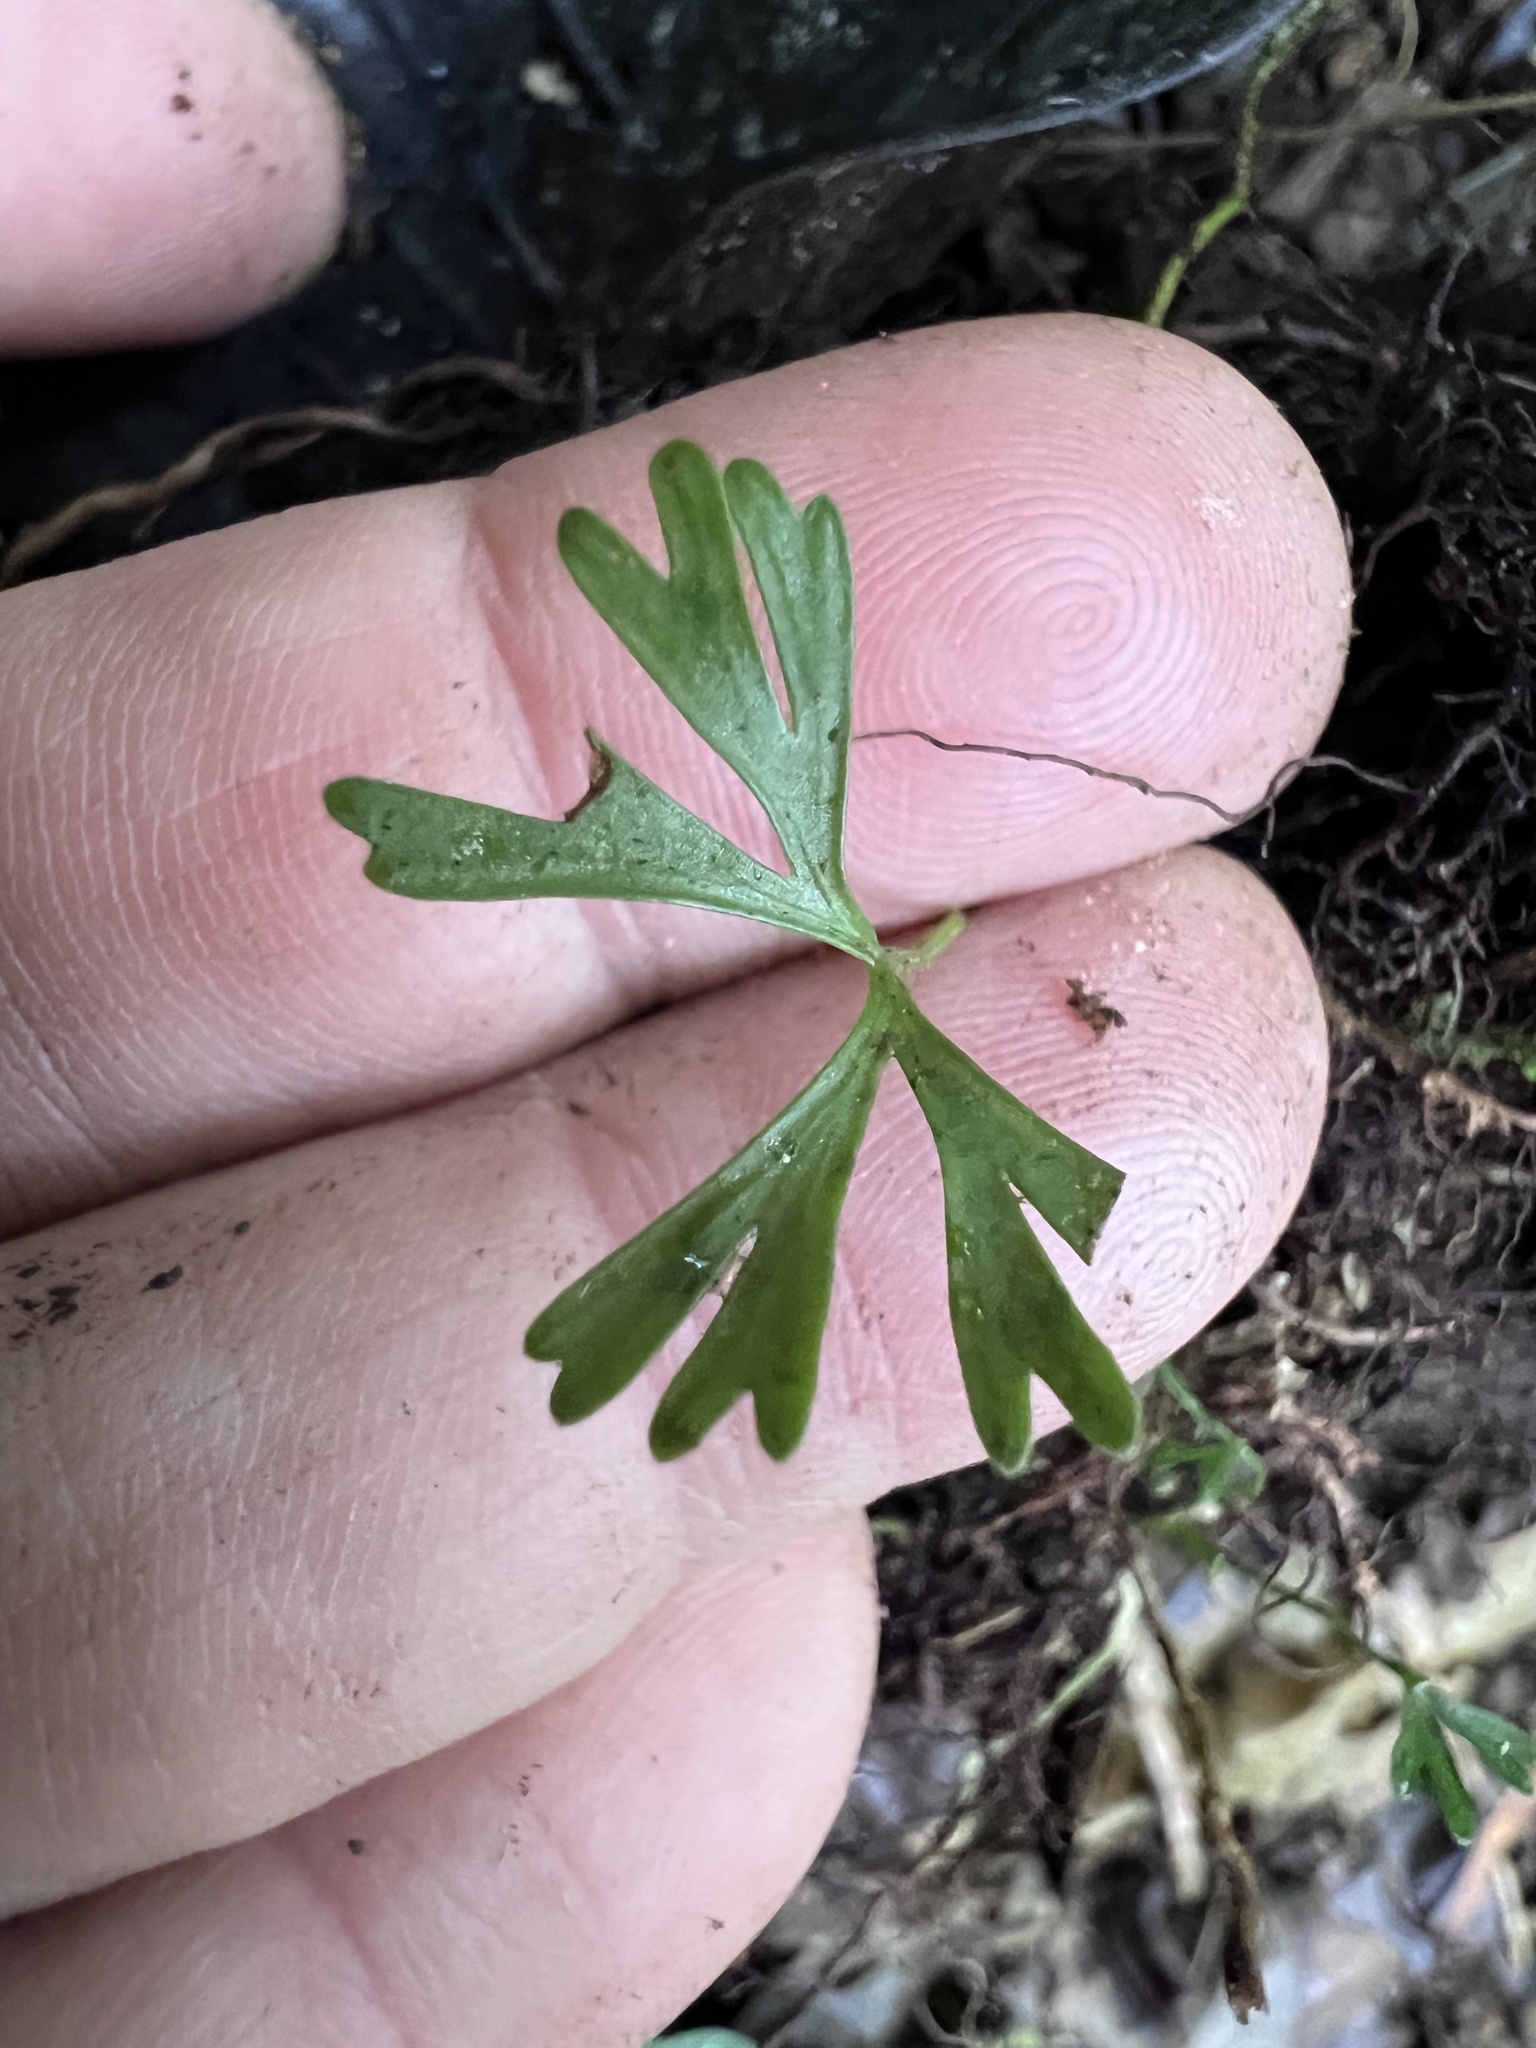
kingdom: Plantae
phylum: Tracheophyta
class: Polypodiopsida
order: Polypodiales
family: Dryopteridaceae
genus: Elaphoglossum
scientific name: Elaphoglossum peltatum
